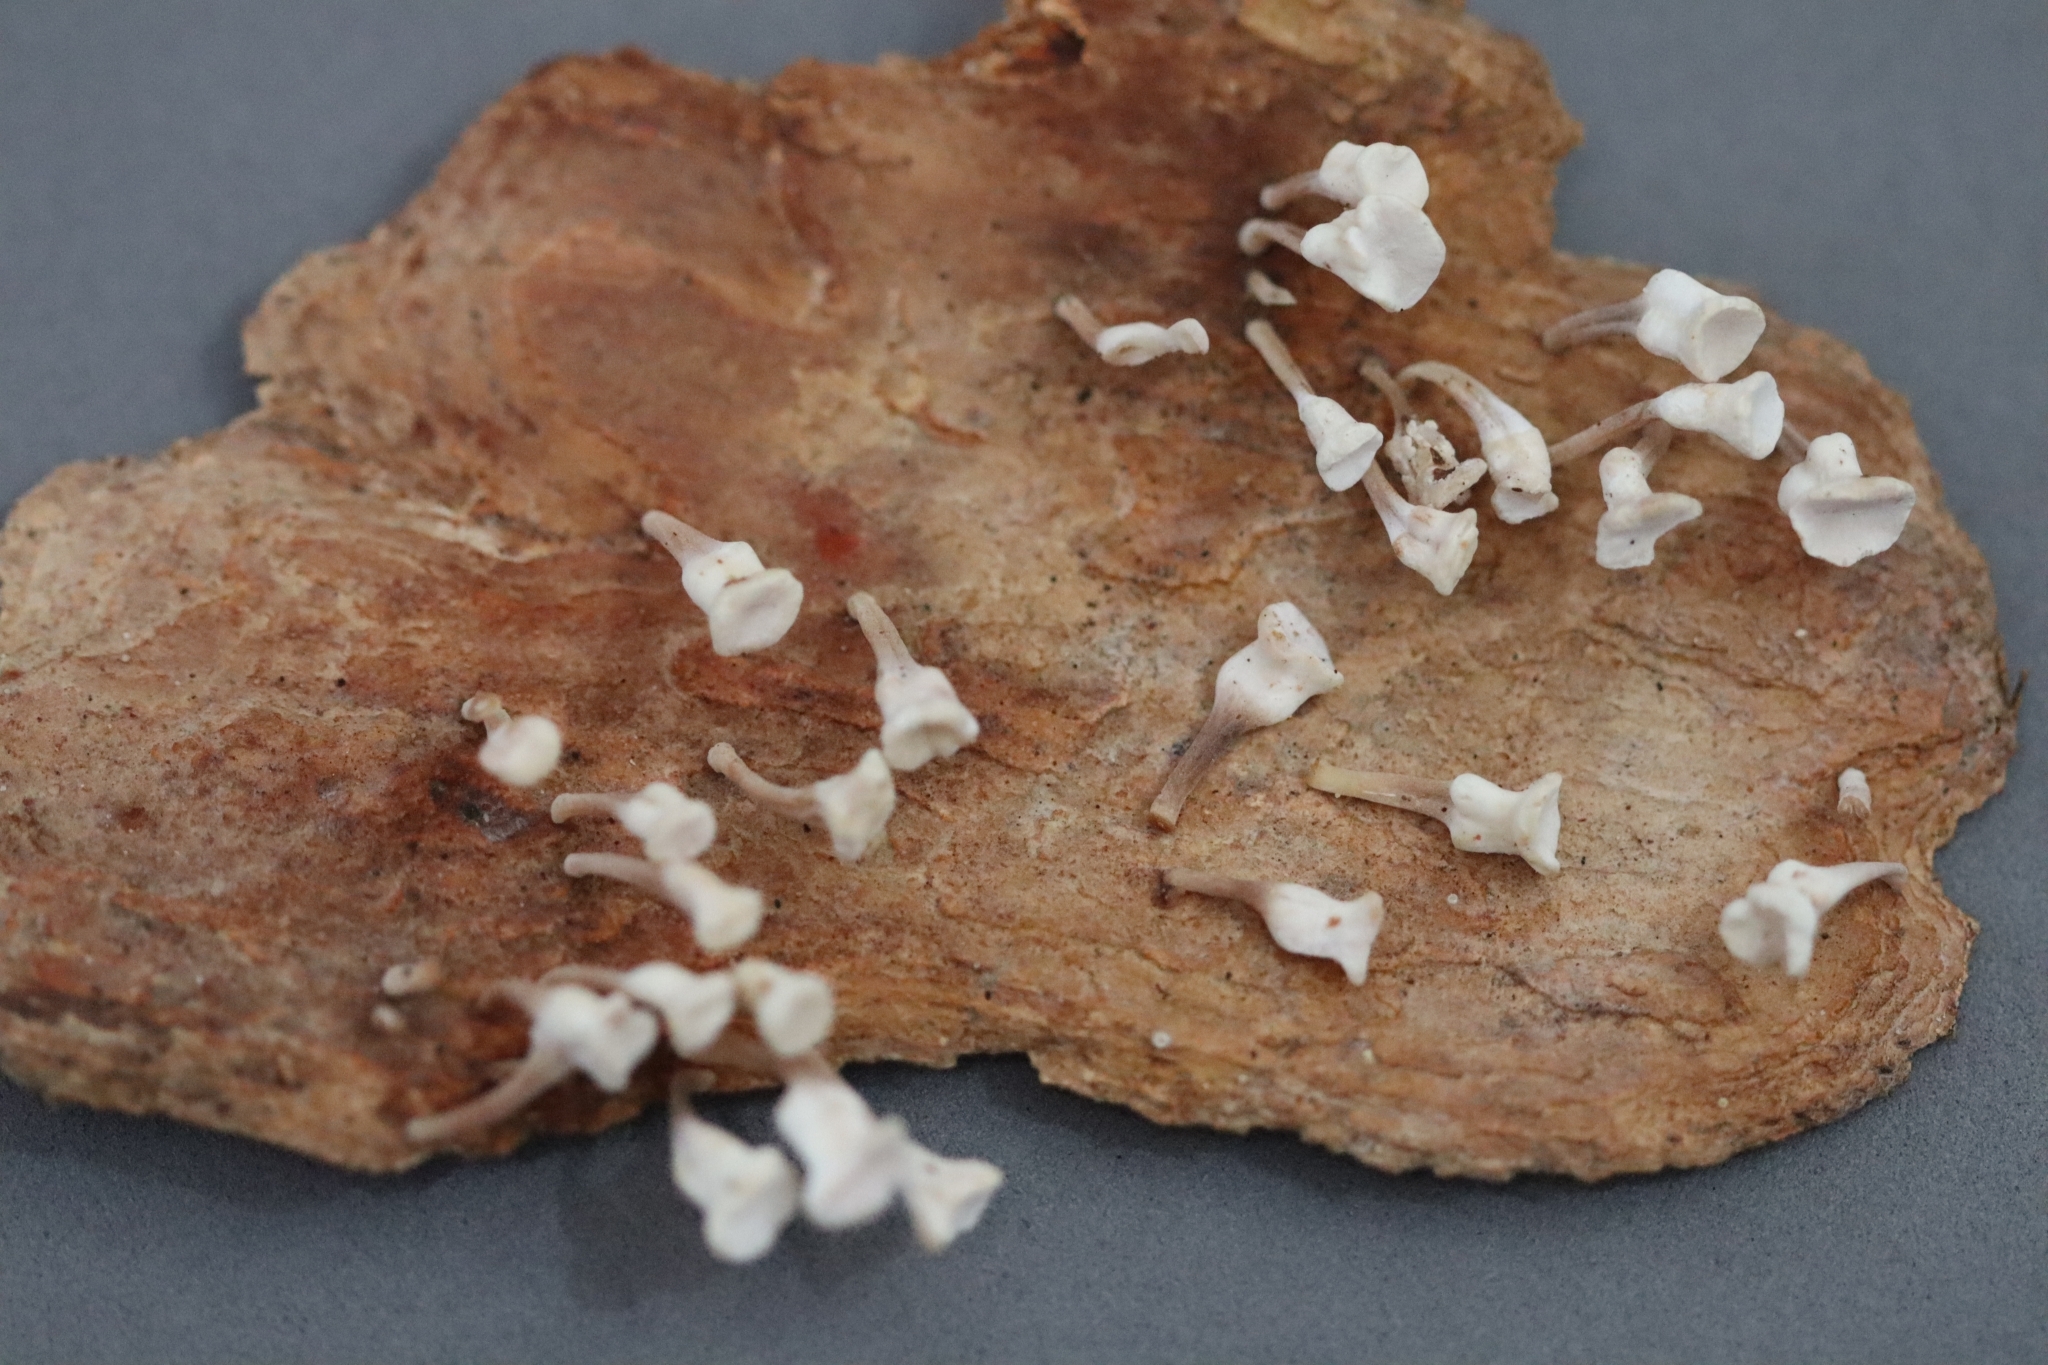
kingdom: Fungi
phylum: Basidiomycota
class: Agaricomycetes
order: Agaricales
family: Omphalotaceae
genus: Gymnopus
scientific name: Gymnopus montagnei
